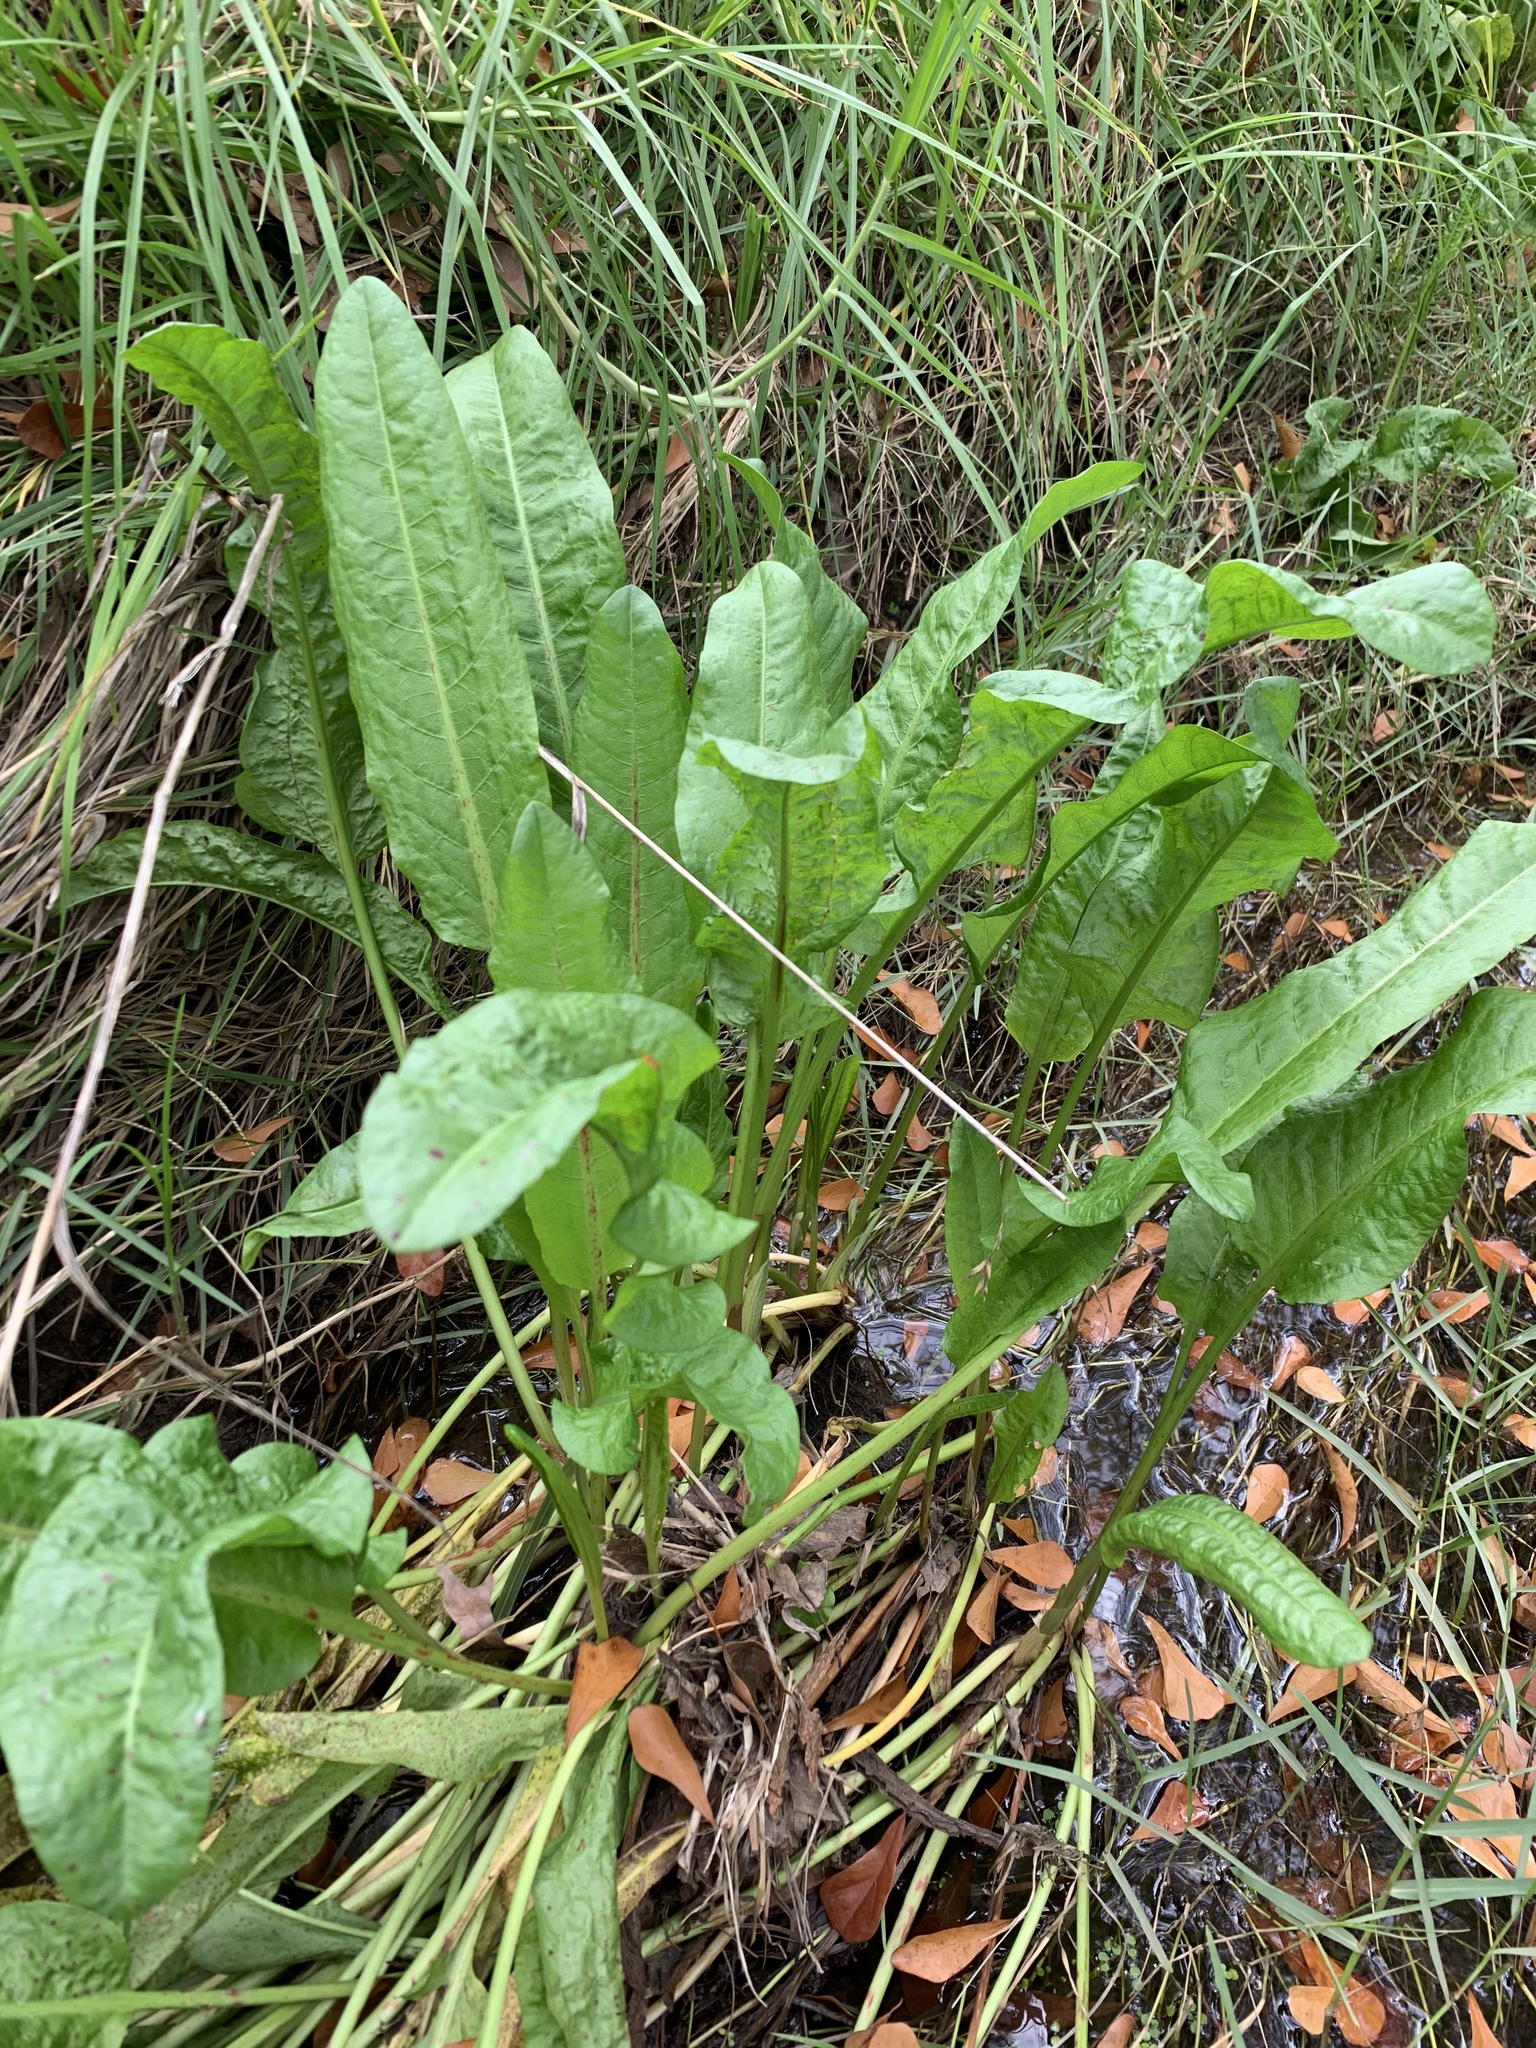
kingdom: Plantae
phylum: Tracheophyta
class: Magnoliopsida
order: Caryophyllales
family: Polygonaceae
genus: Rumex
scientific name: Rumex crispus
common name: Curled dock
